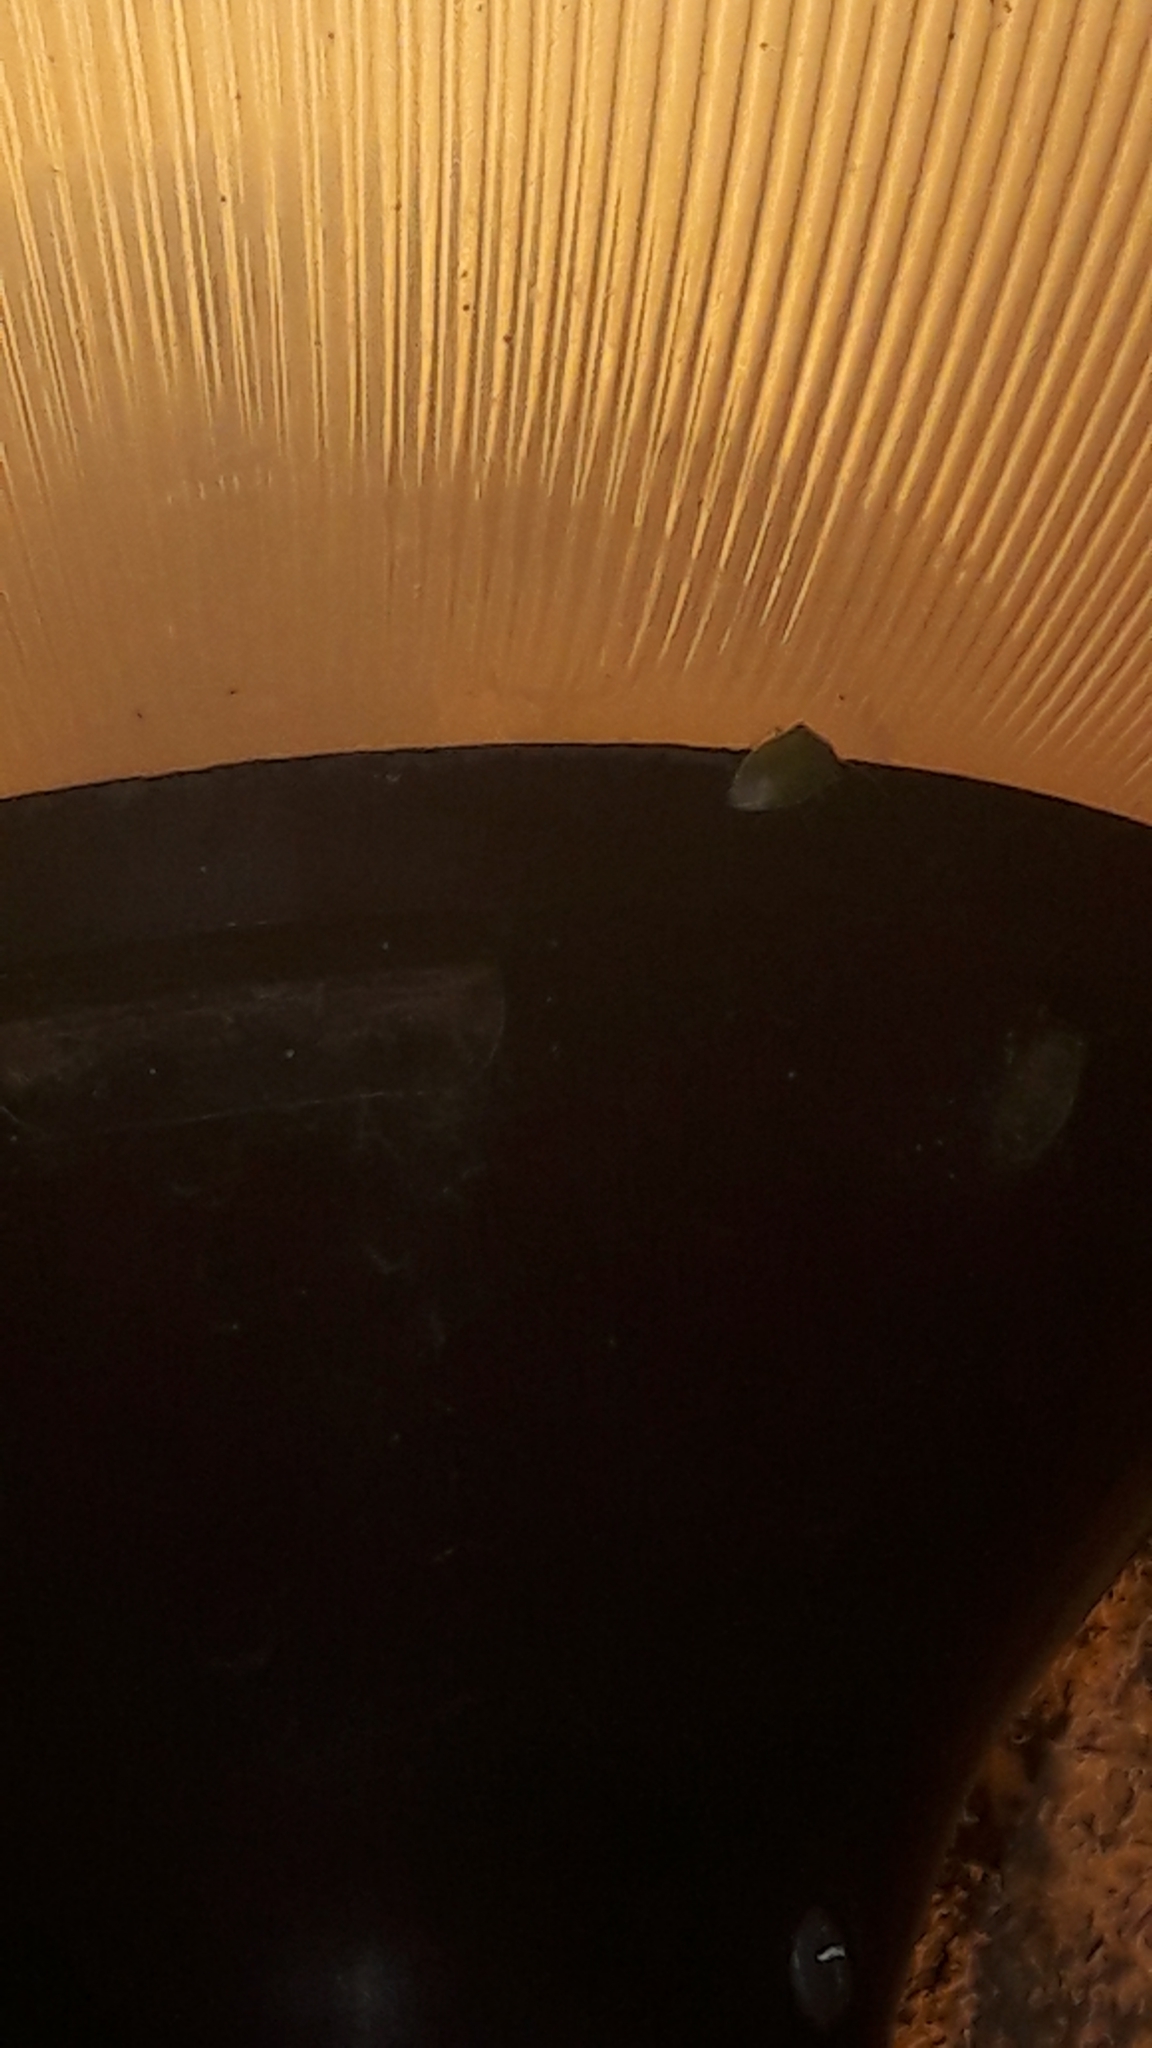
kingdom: Animalia
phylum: Arthropoda
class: Insecta
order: Hemiptera
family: Pentatomidae
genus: Acrosternum
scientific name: Acrosternum heegeri
